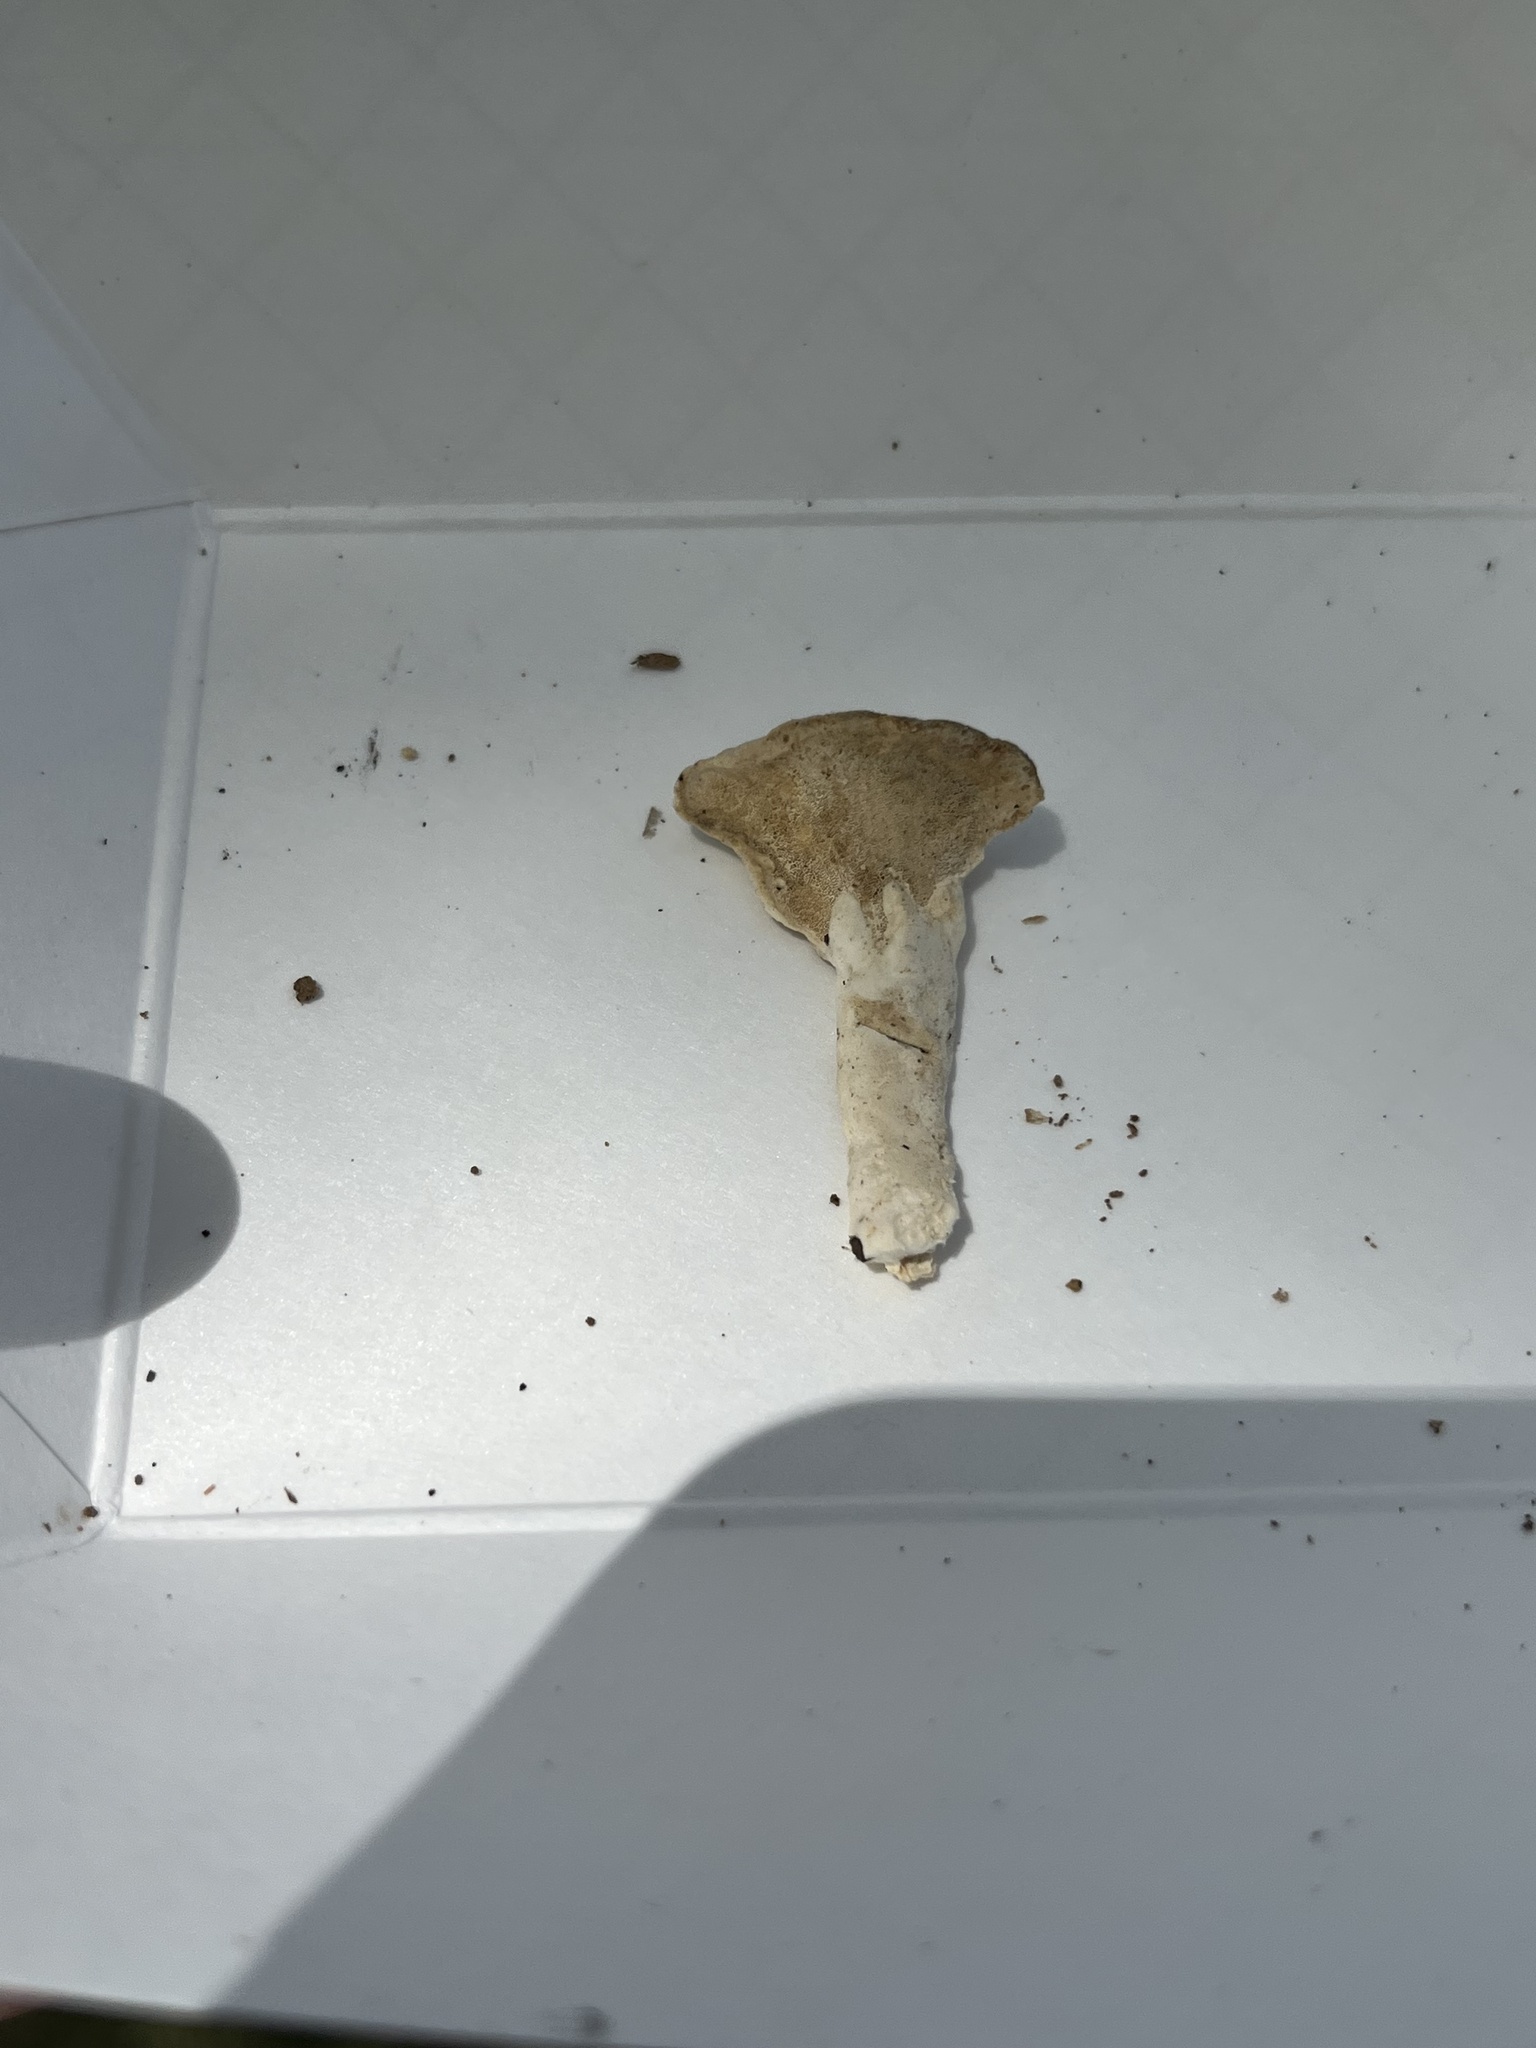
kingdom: Fungi
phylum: Basidiomycota
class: Agaricomycetes
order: Polyporales
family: Steccherinaceae
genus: Loweomyces
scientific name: Loweomyces fractipes
